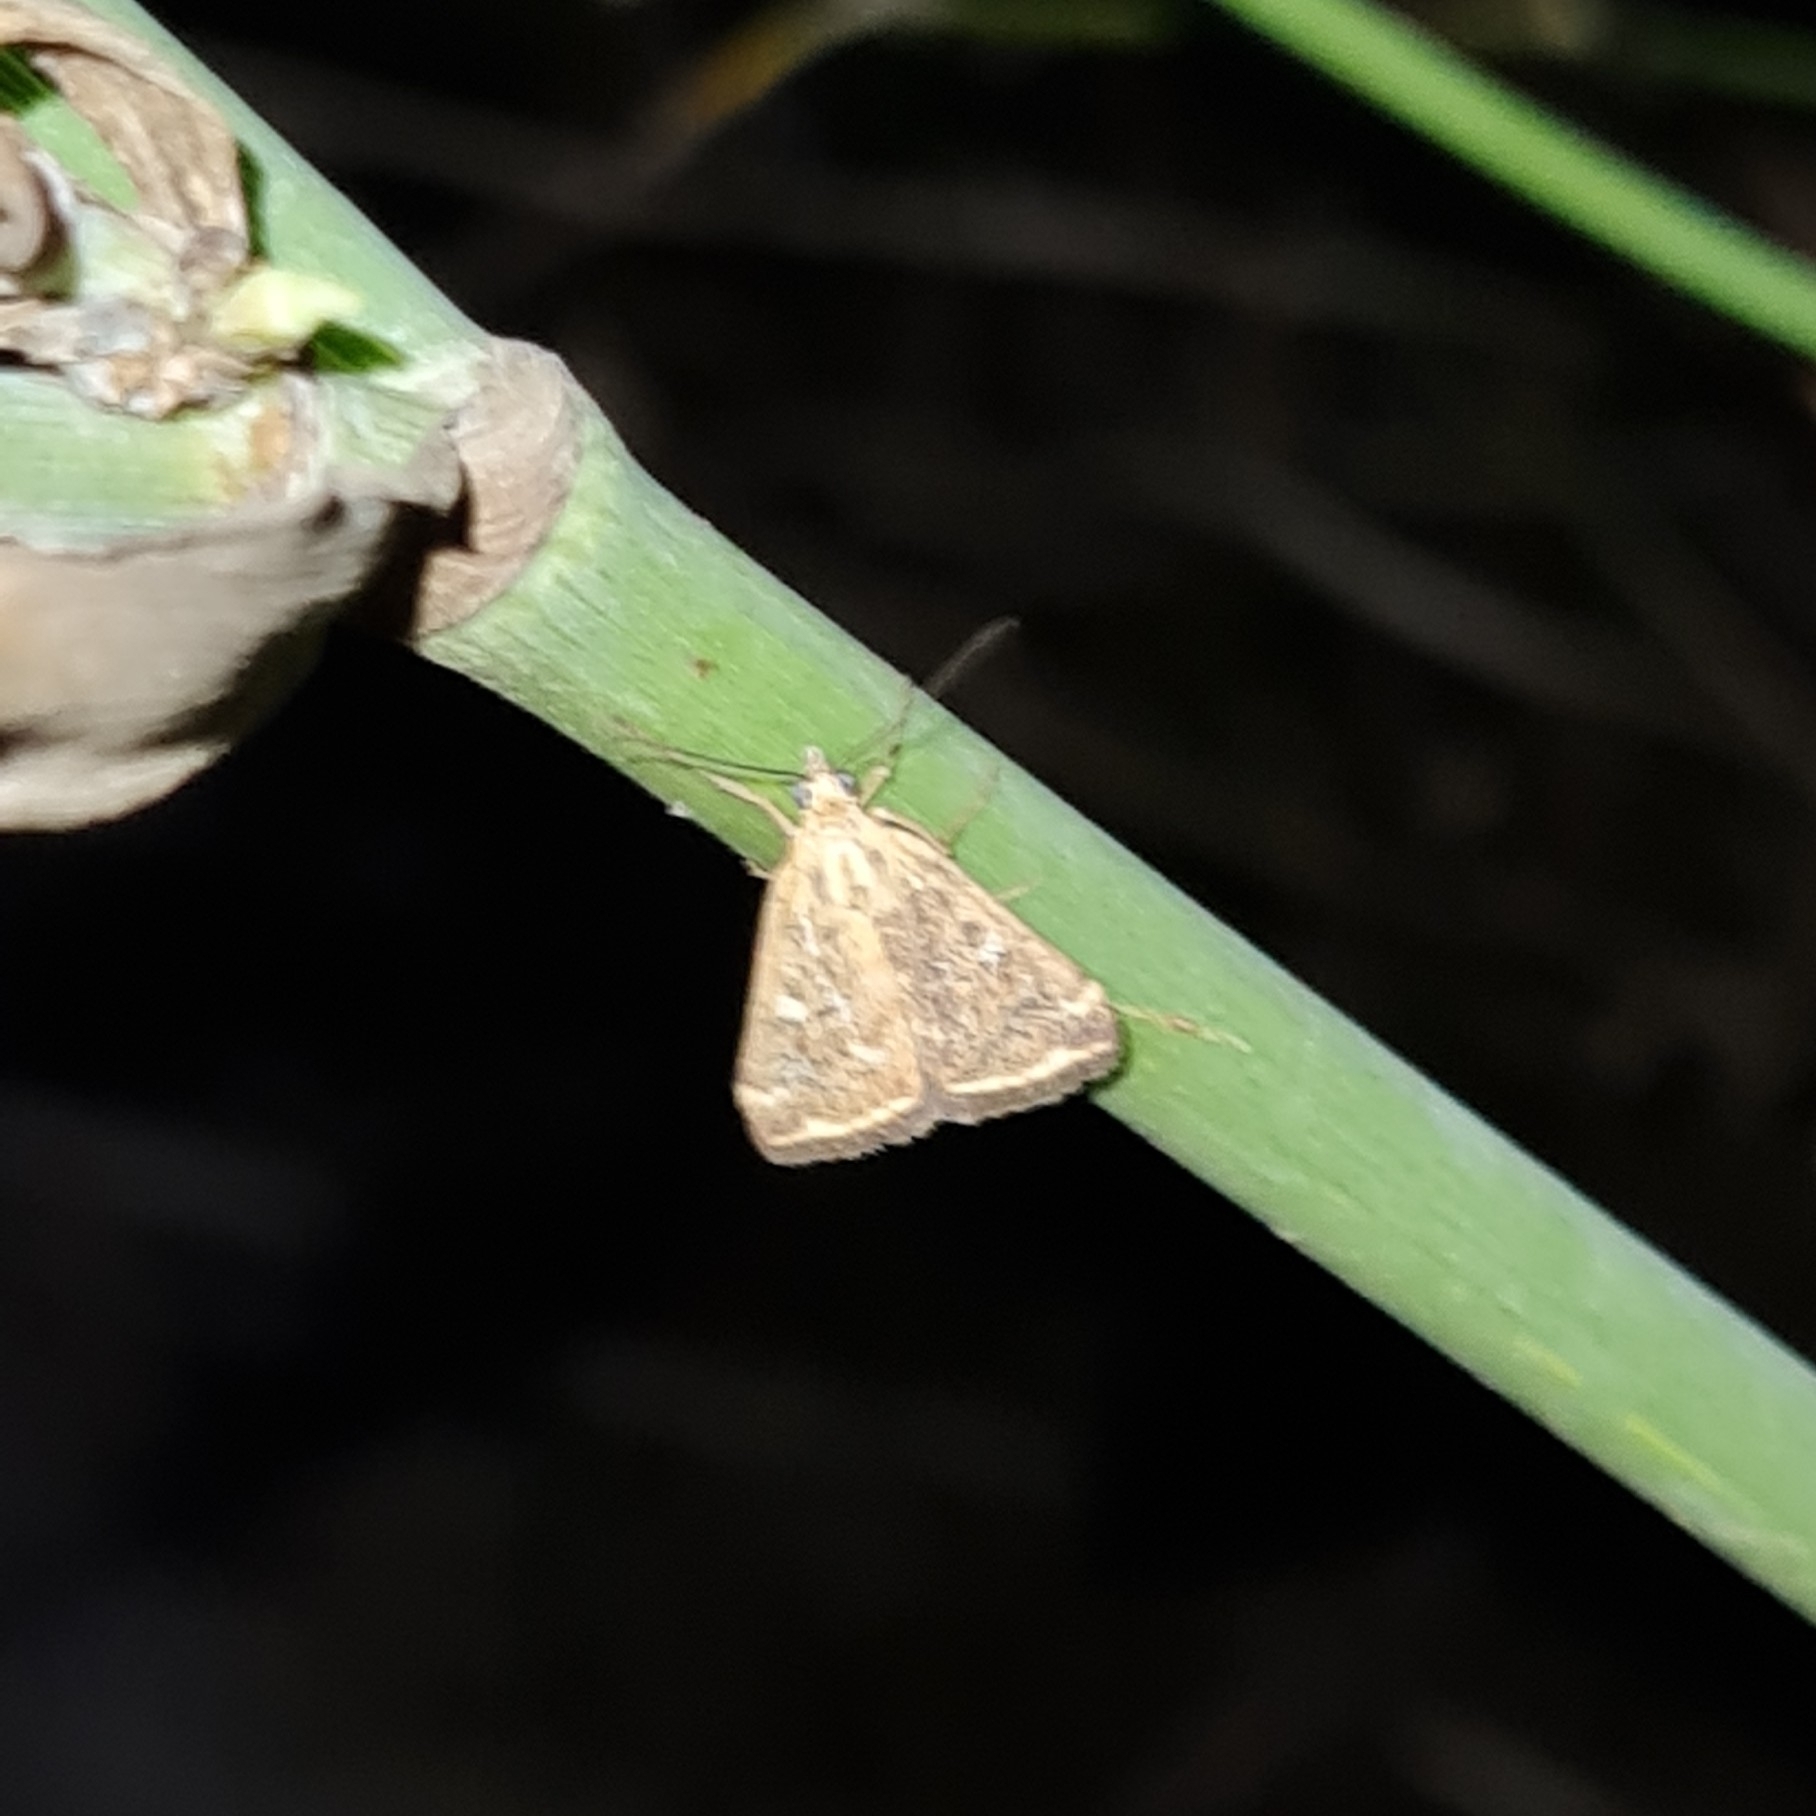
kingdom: Animalia
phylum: Arthropoda
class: Insecta
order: Lepidoptera
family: Crambidae
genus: Loxostege
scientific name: Loxostege sticticalis
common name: Crambid moth
